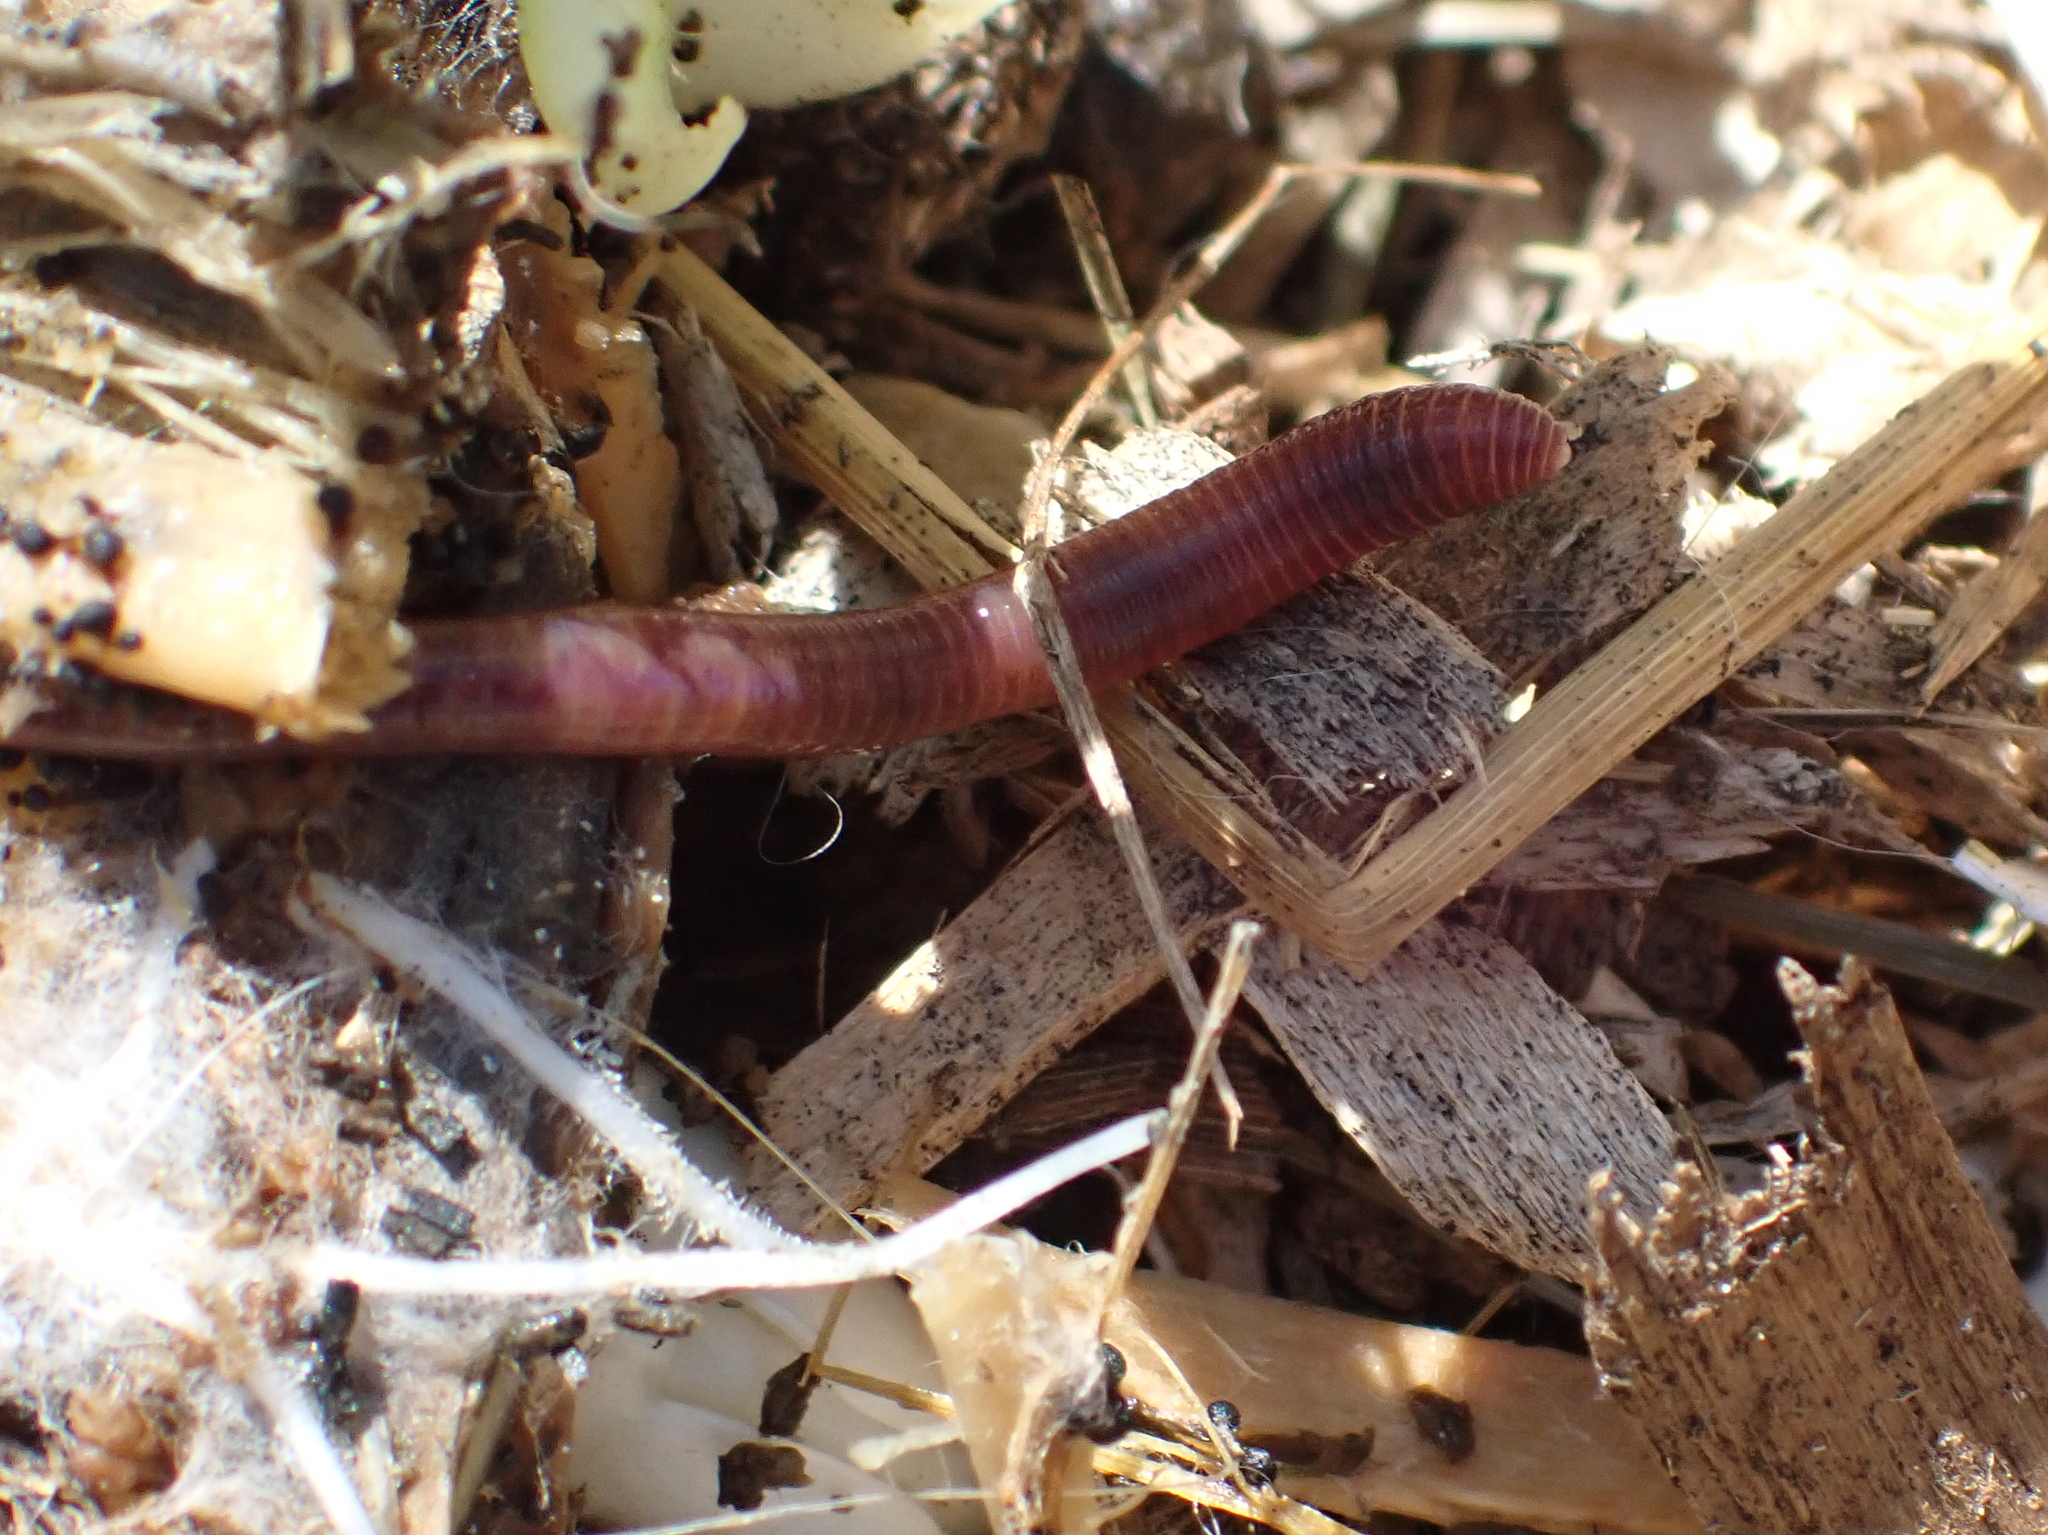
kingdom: Animalia
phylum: Annelida
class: Clitellata
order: Crassiclitellata
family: Lumbricidae
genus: Lumbricus
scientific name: Lumbricus terrestris
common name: Common earthworm
